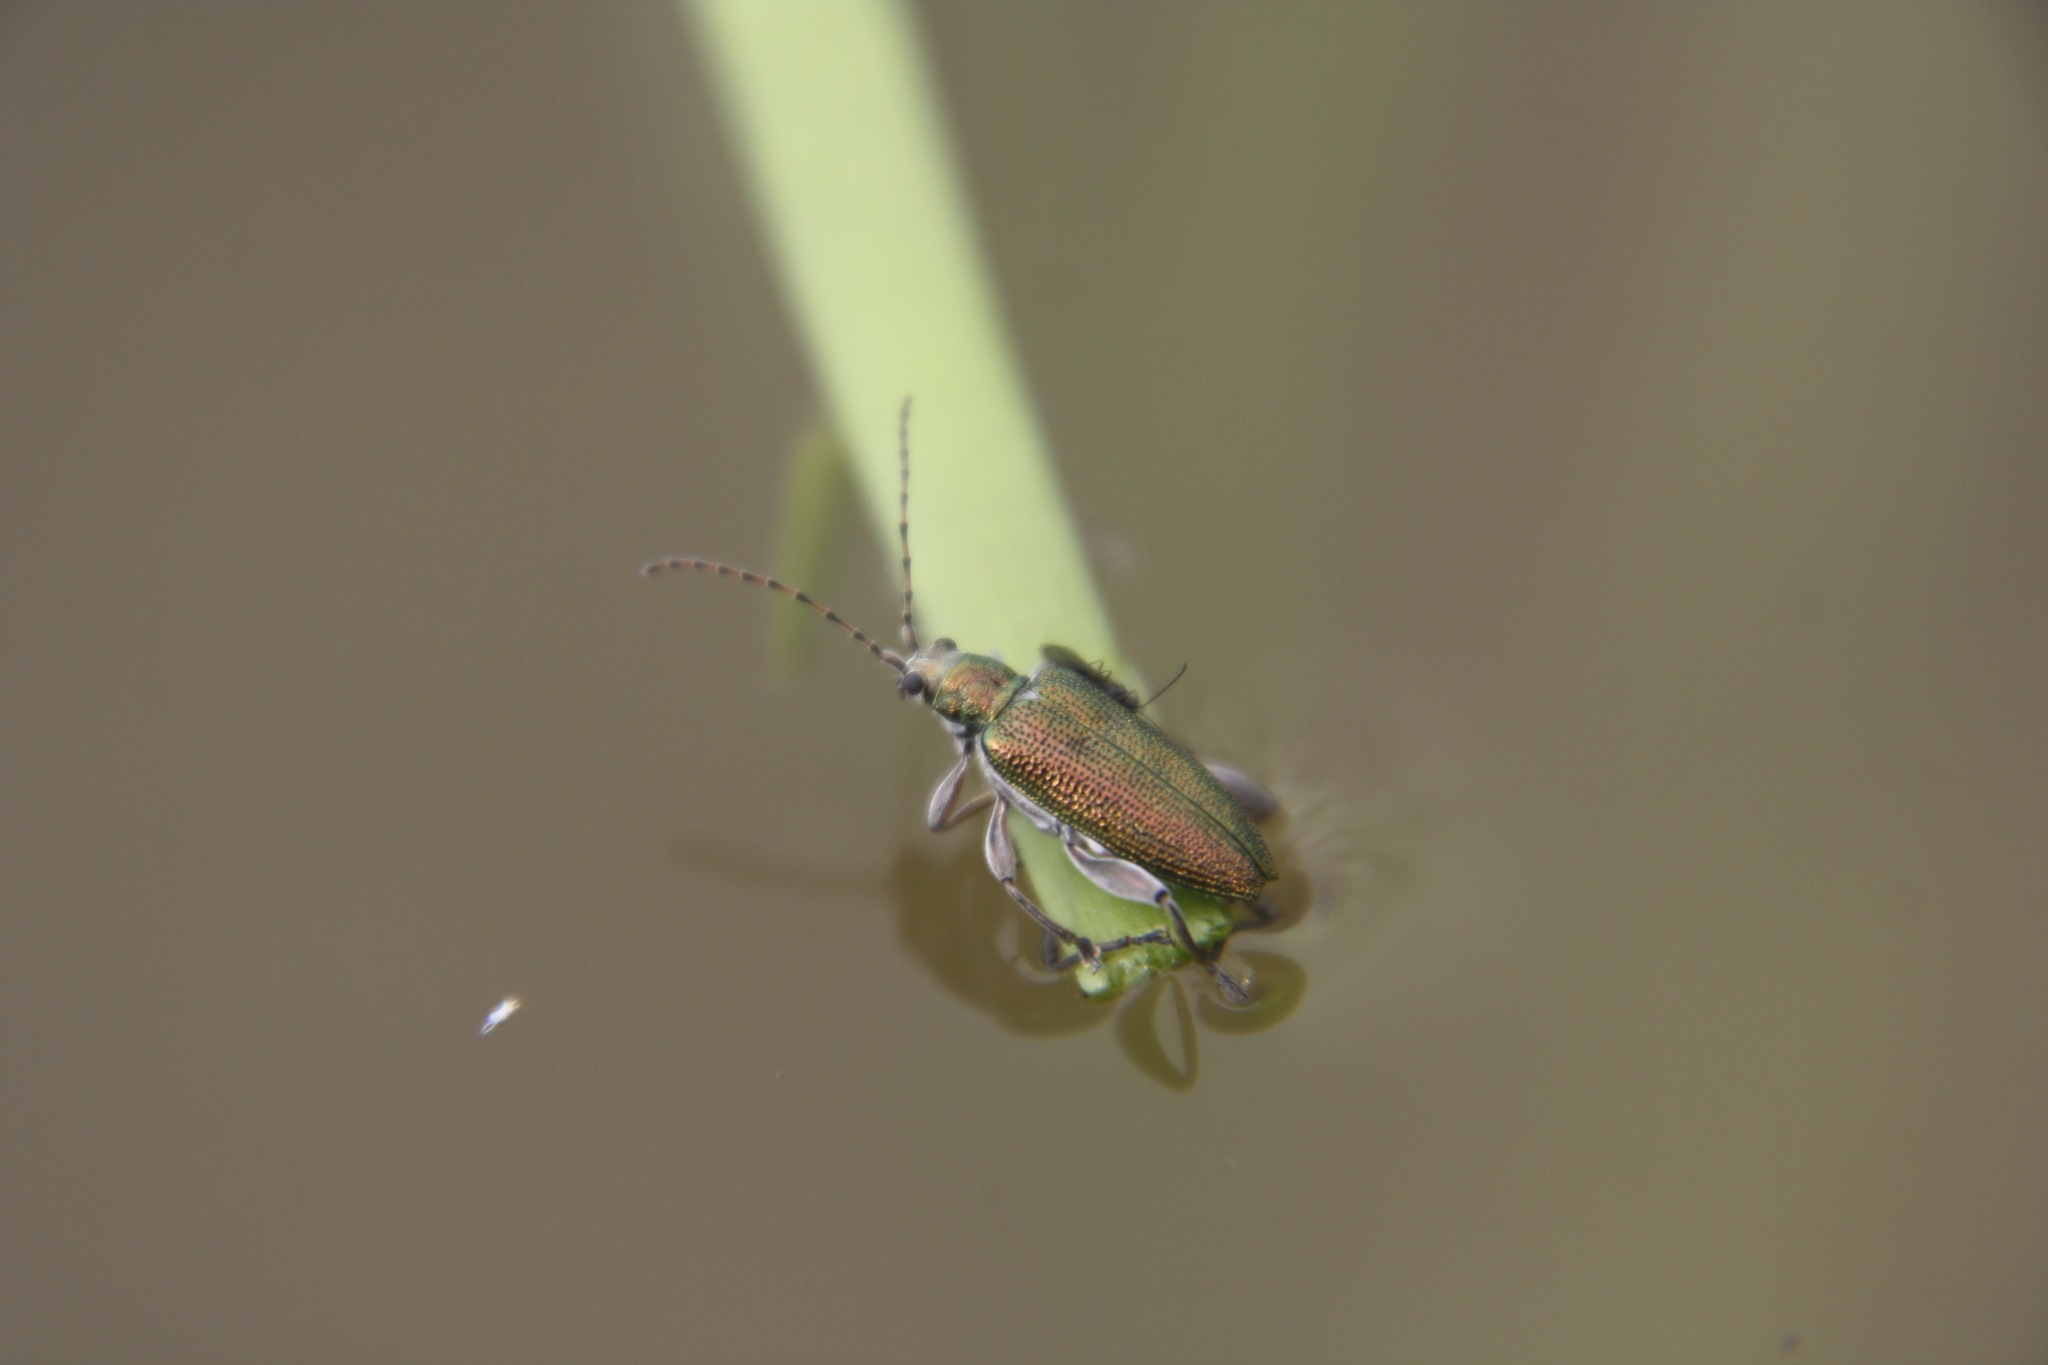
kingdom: Animalia
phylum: Arthropoda
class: Insecta
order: Coleoptera
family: Chrysomelidae
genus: Donacia
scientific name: Donacia simplex
